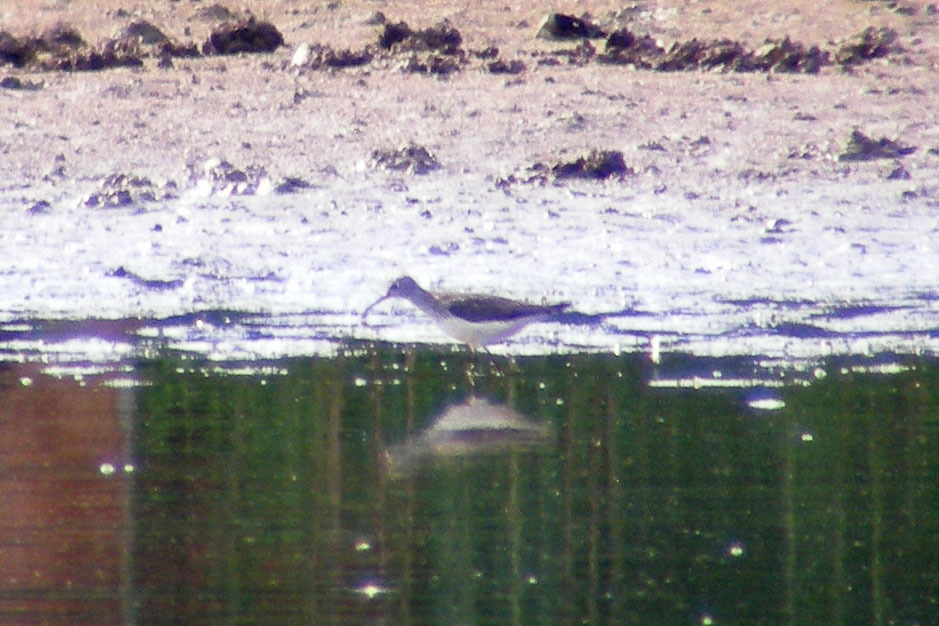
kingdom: Animalia
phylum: Chordata
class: Aves
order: Charadriiformes
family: Scolopacidae
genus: Tringa
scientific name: Tringa solitaria
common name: Solitary sandpiper
